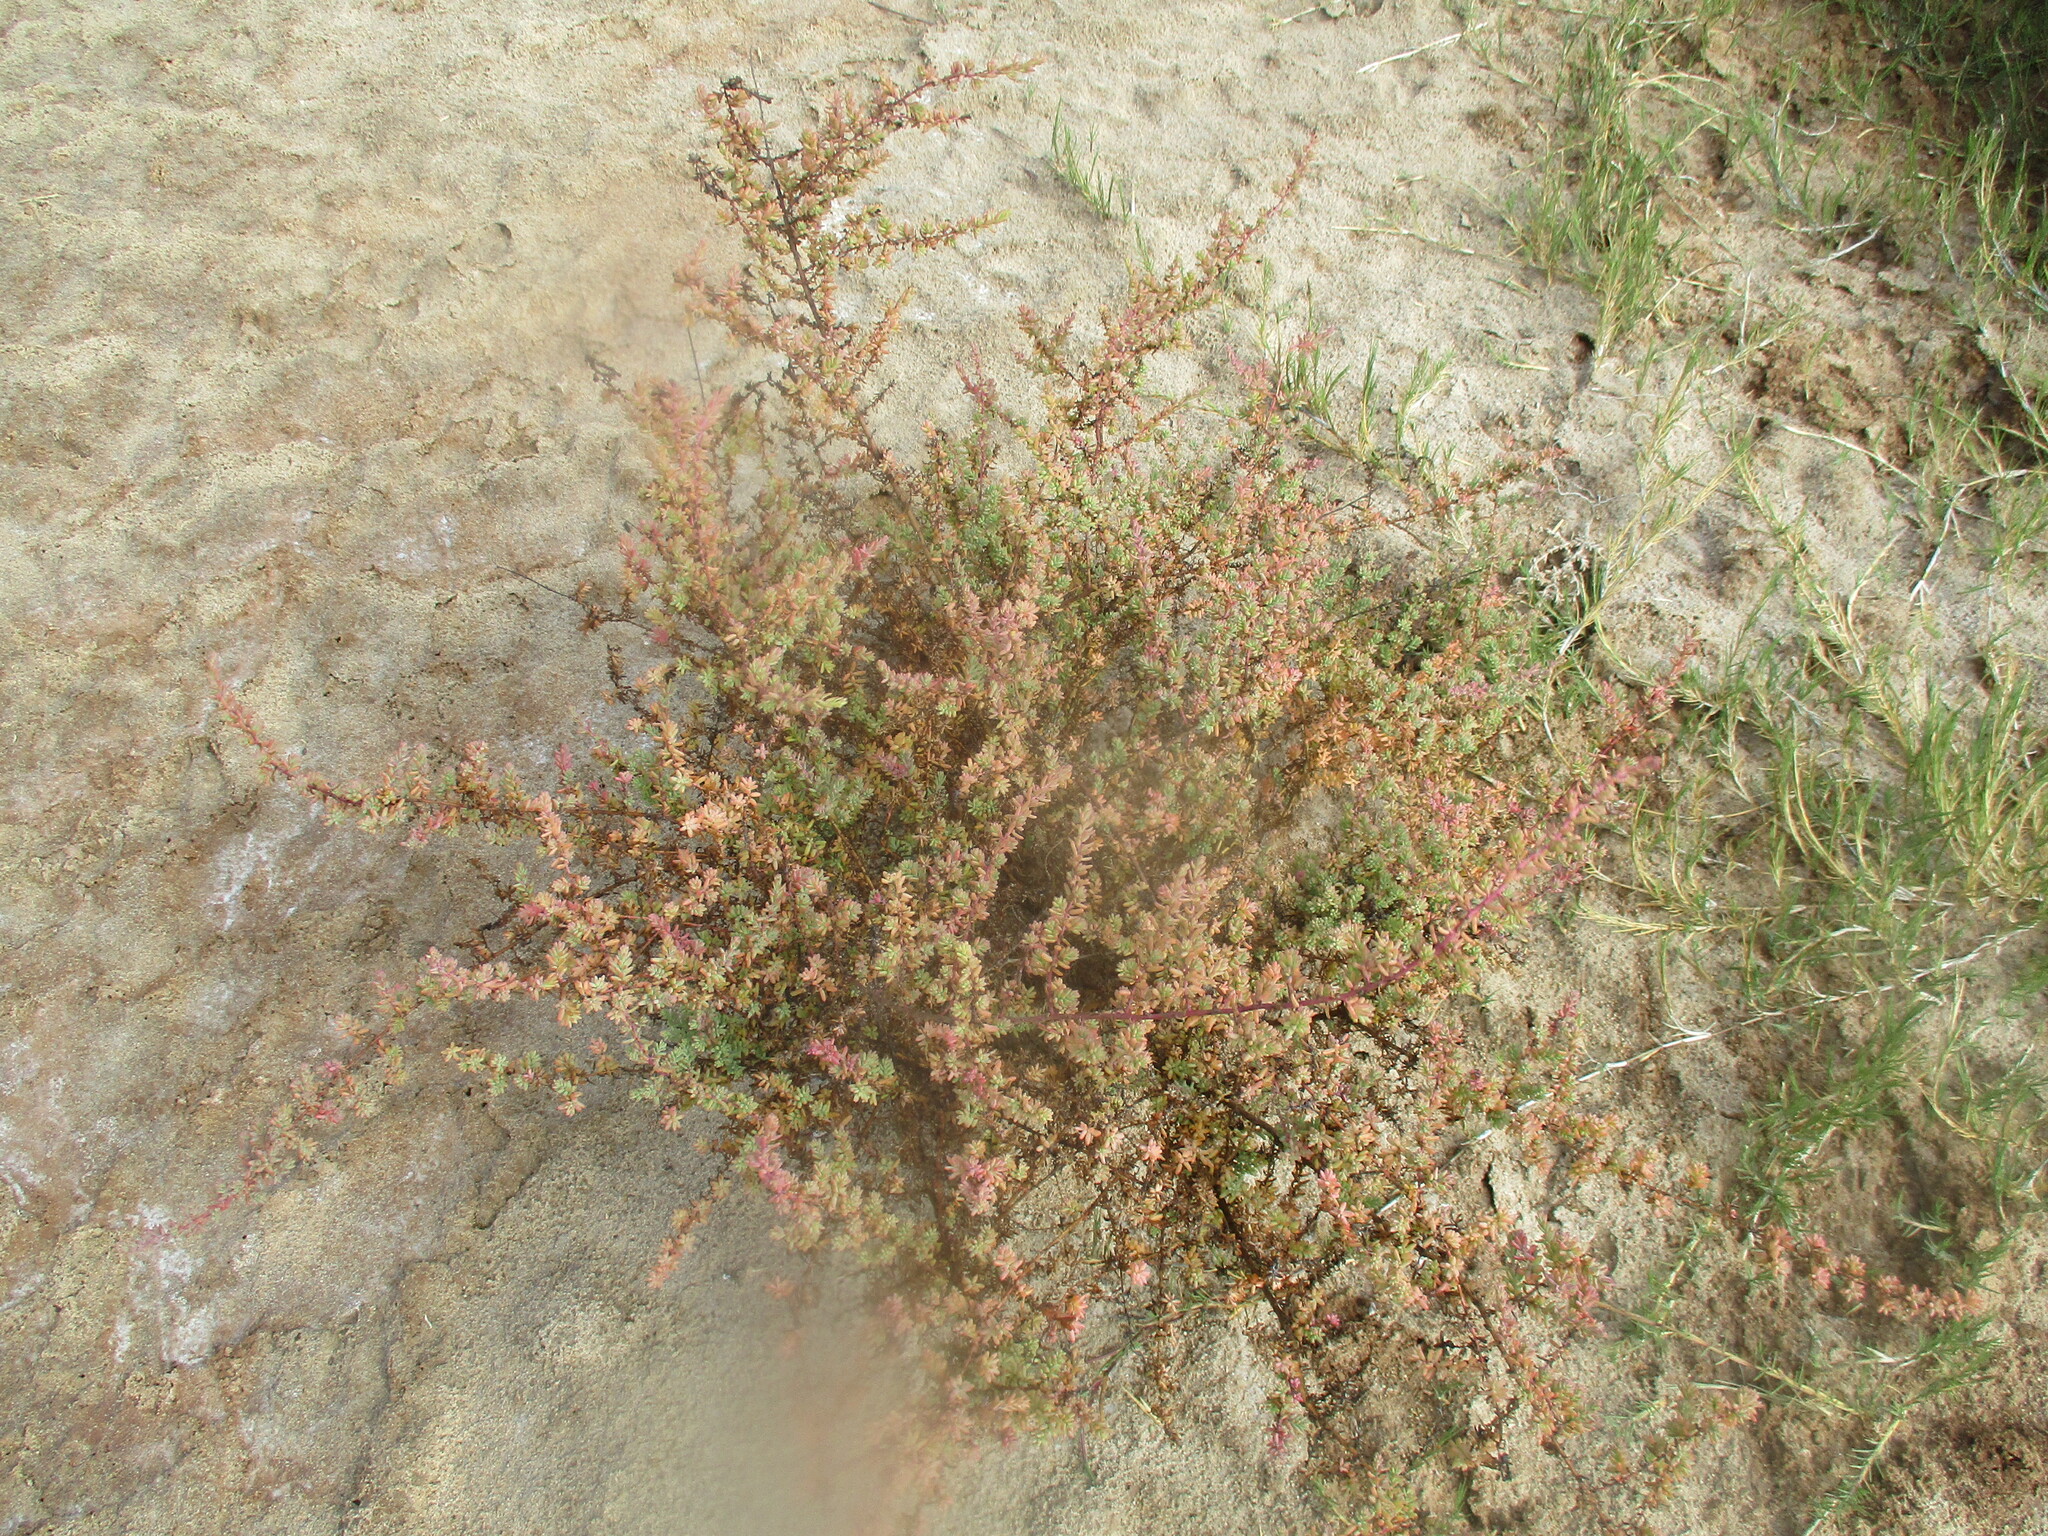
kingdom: Plantae
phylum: Tracheophyta
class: Magnoliopsida
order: Caryophyllales
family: Amaranthaceae
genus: Suaeda
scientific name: Suaeda plumosa
